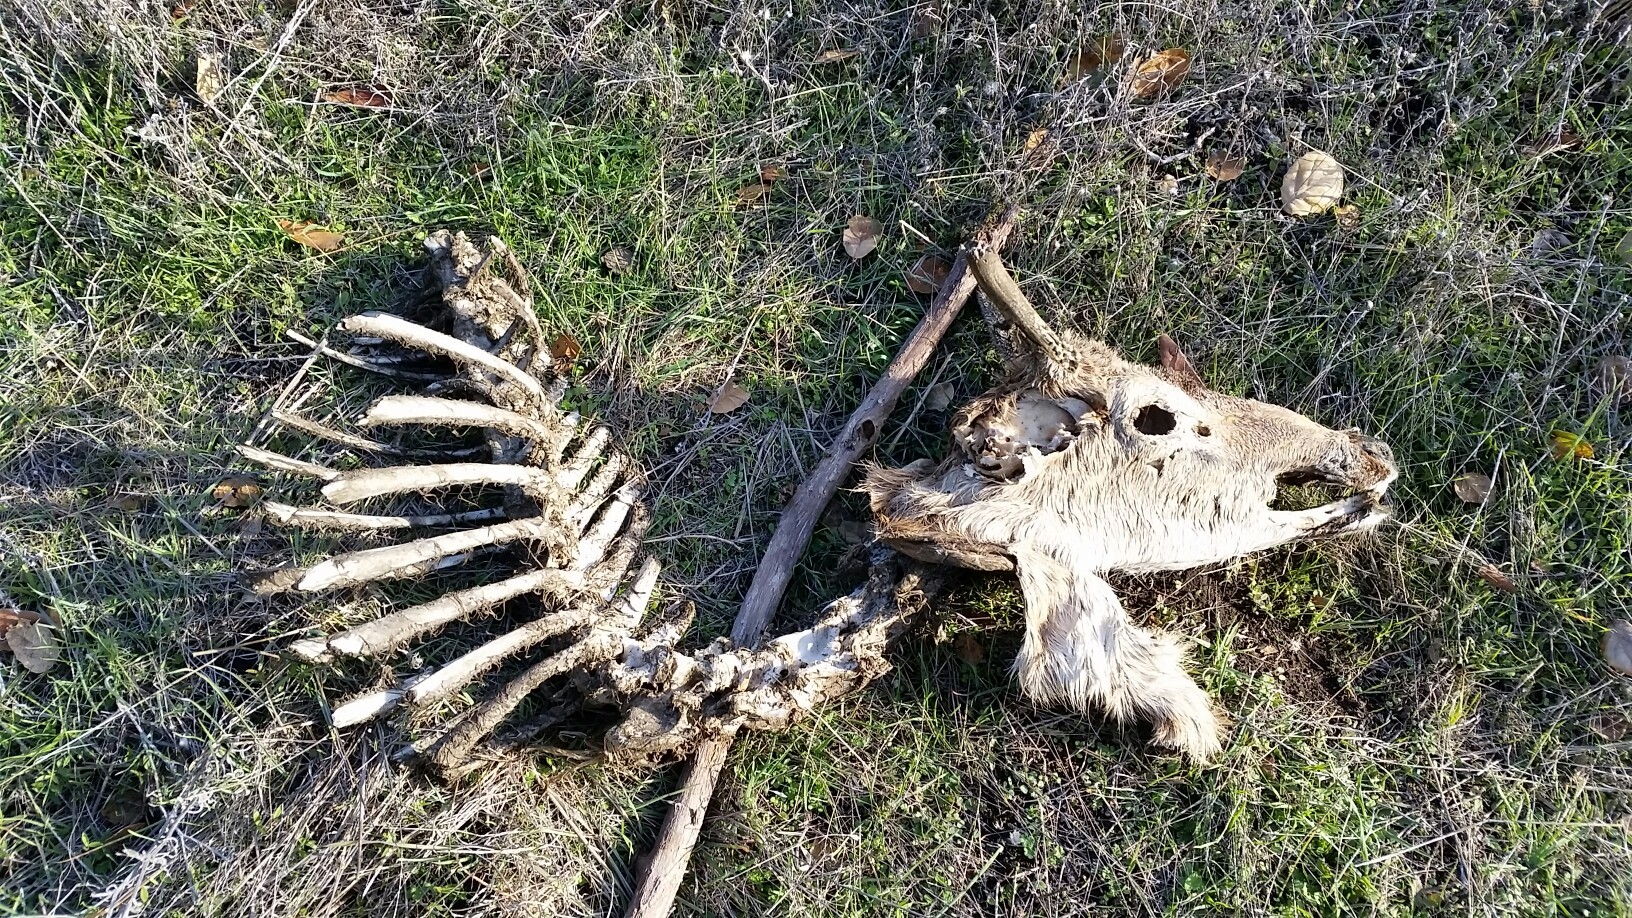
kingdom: Animalia
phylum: Chordata
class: Mammalia
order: Artiodactyla
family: Cervidae
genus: Odocoileus
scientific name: Odocoileus hemionus
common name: Mule deer
